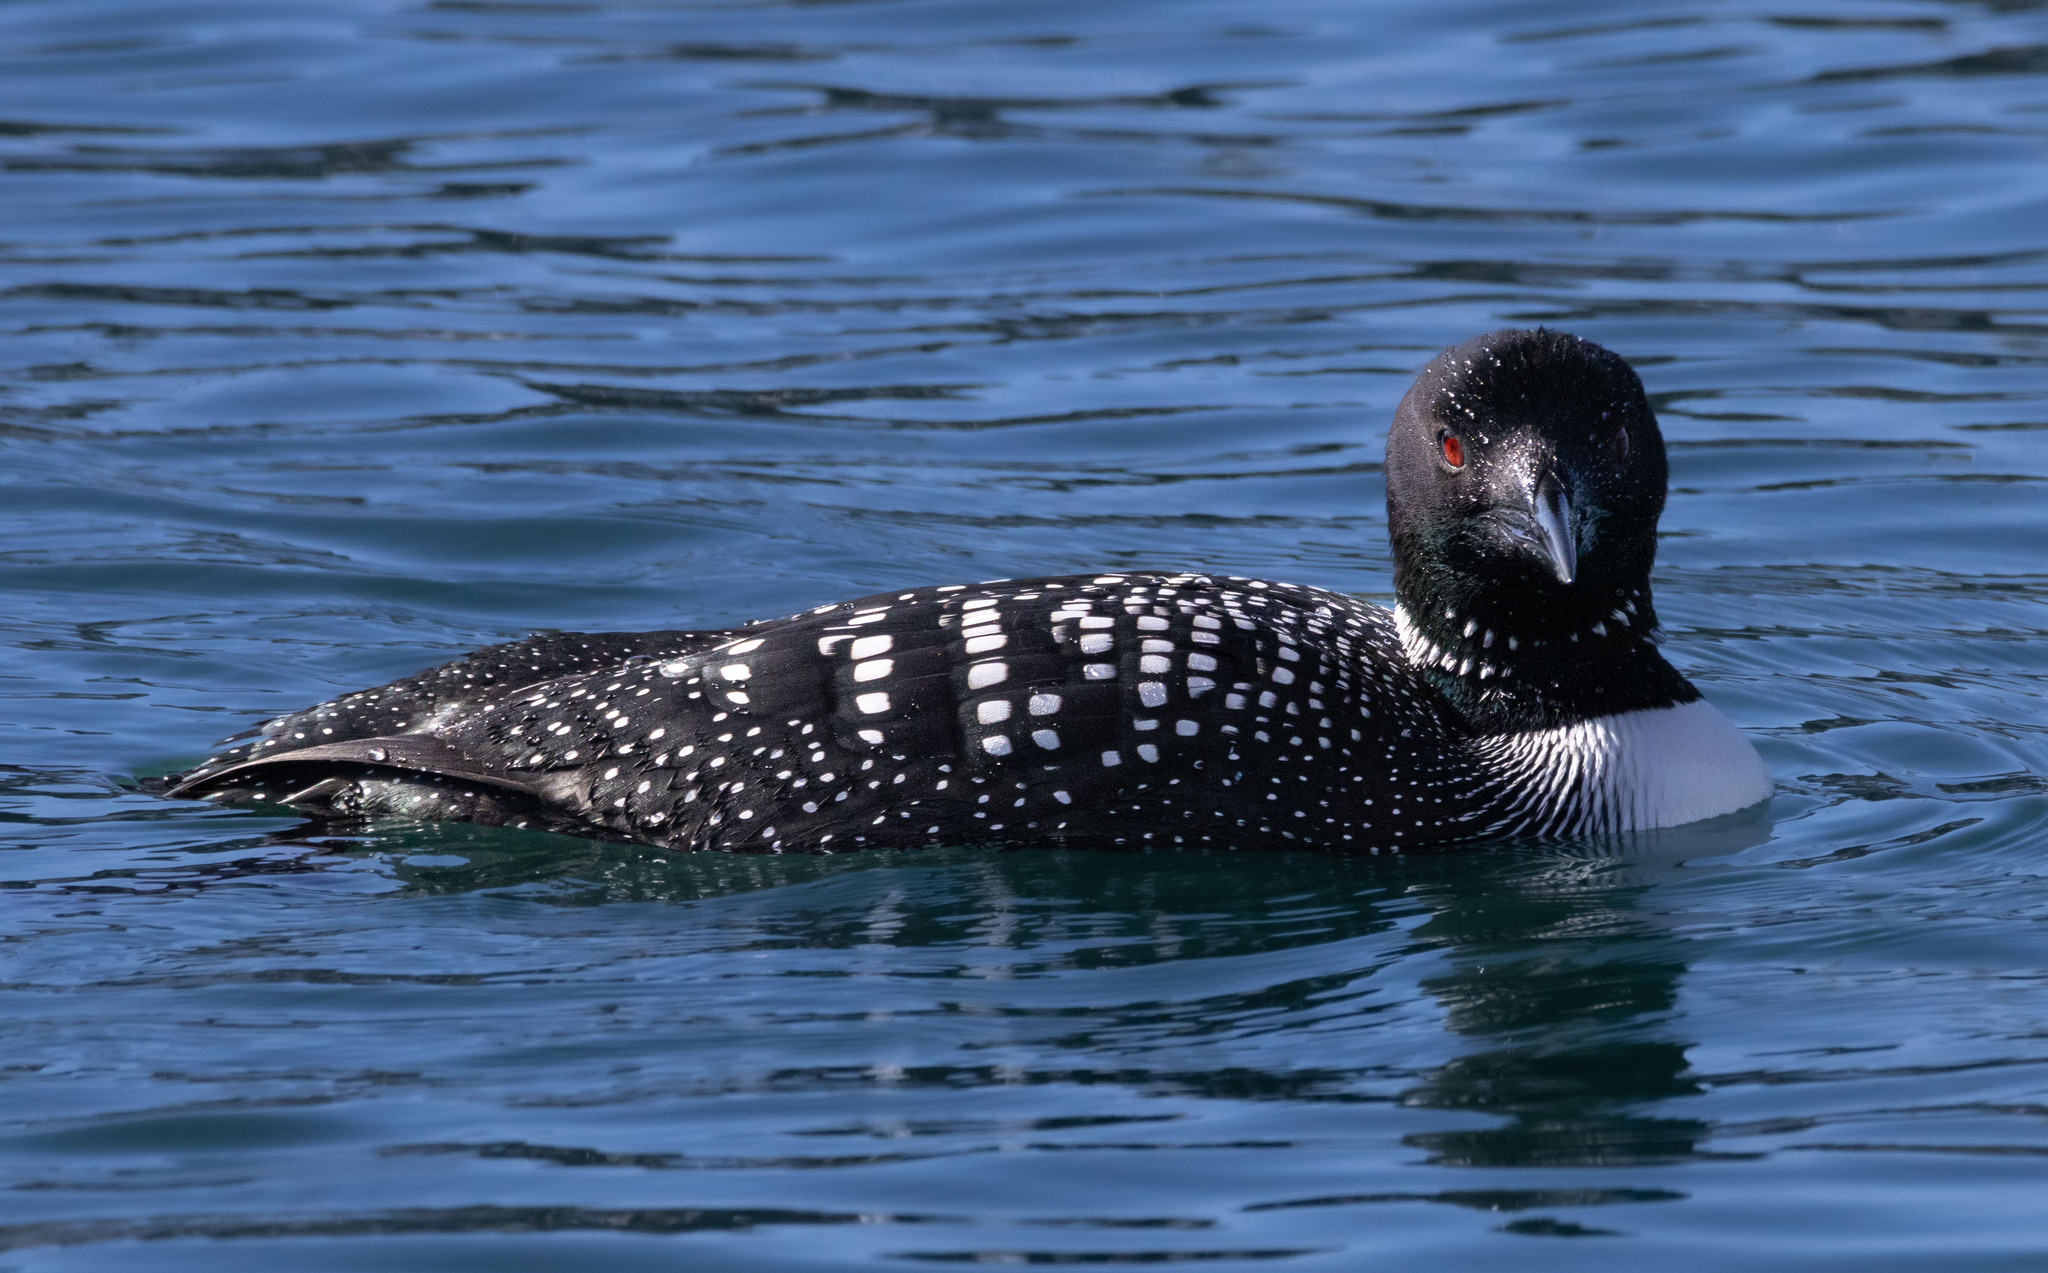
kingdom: Animalia
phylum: Chordata
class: Aves
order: Gaviiformes
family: Gaviidae
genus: Gavia
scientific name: Gavia immer
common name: Common loon
